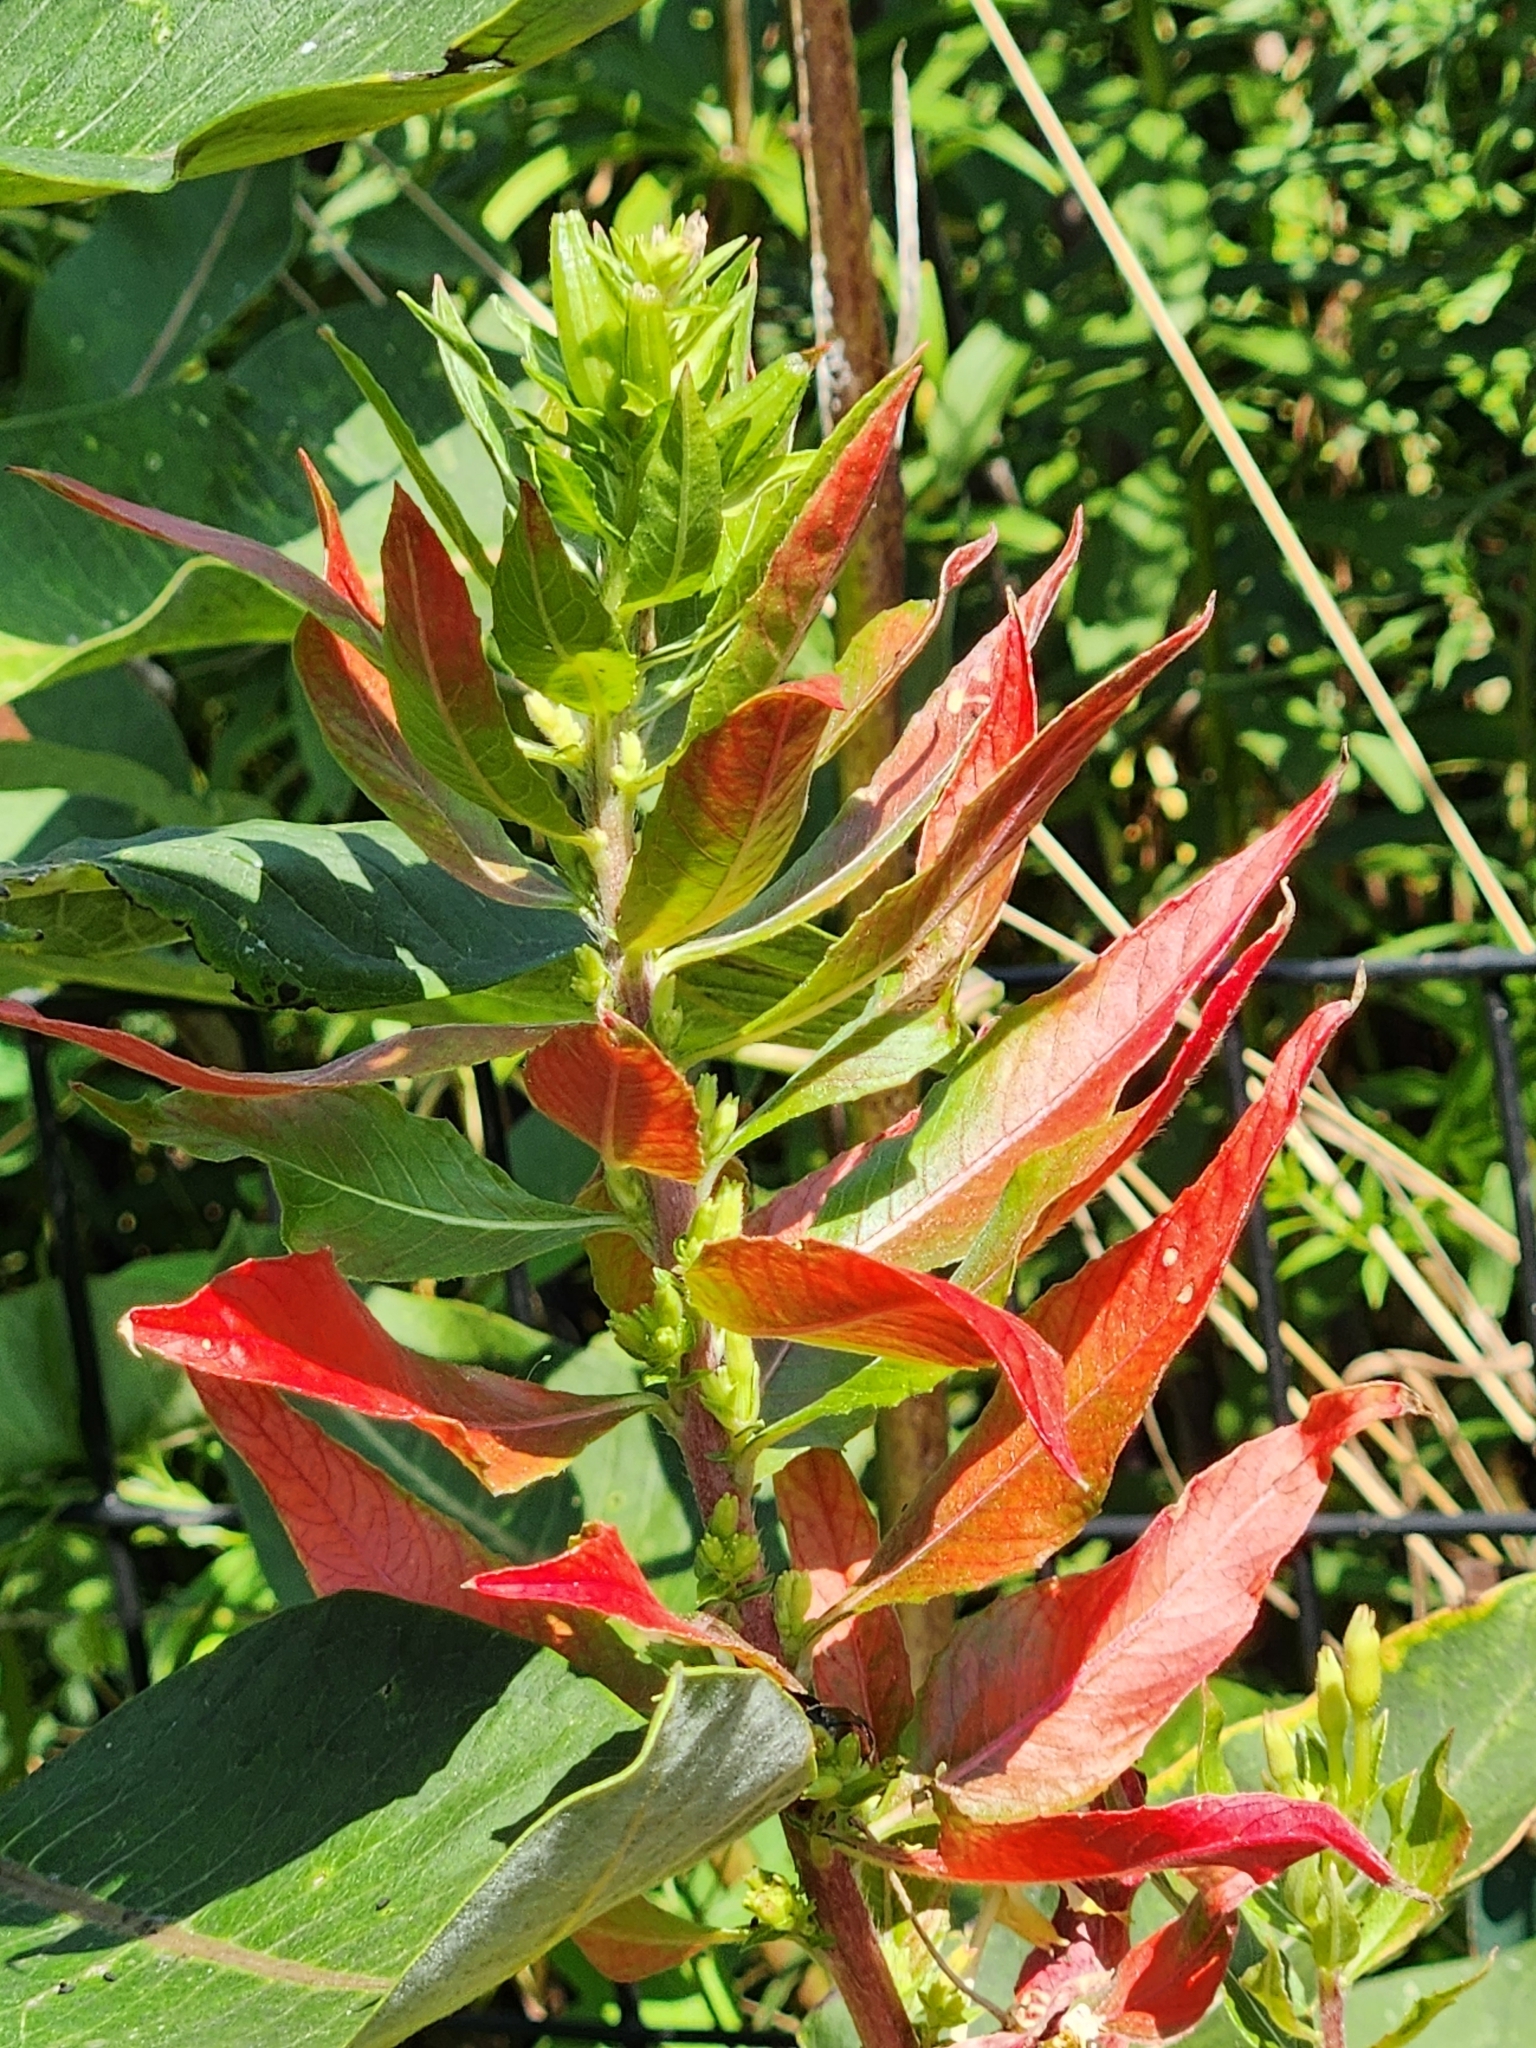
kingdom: Plantae
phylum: Tracheophyta
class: Magnoliopsida
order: Myrtales
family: Onagraceae
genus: Oenothera
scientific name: Oenothera biennis
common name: Common evening-primrose
